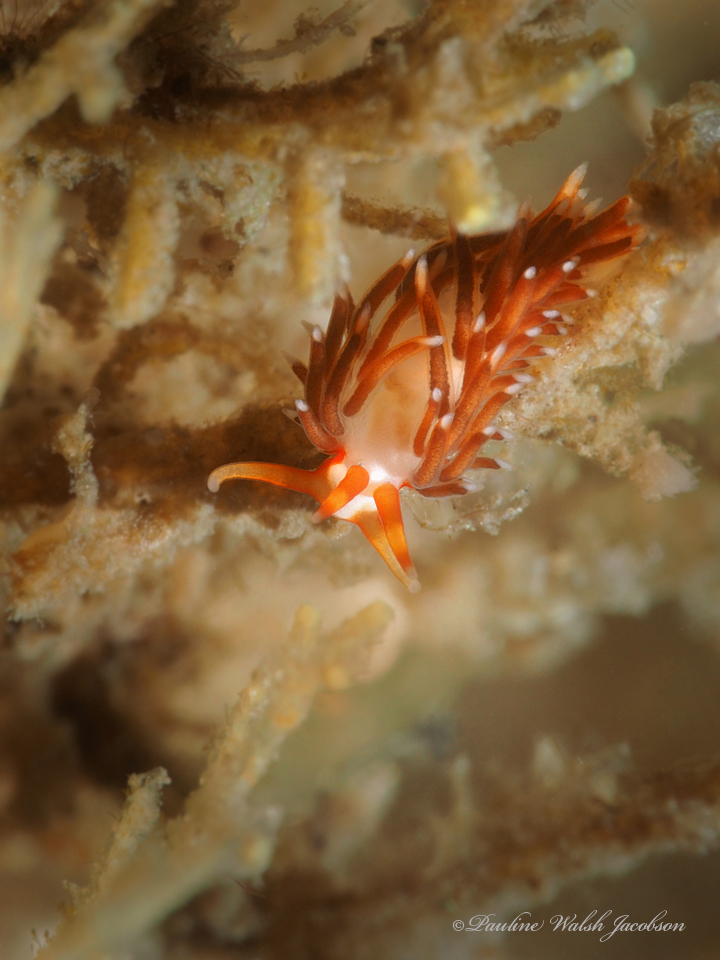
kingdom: Animalia
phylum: Mollusca
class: Gastropoda
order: Nudibranchia
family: Facelinidae
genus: Learchis
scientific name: Learchis evelinae
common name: Eveline's learchis
